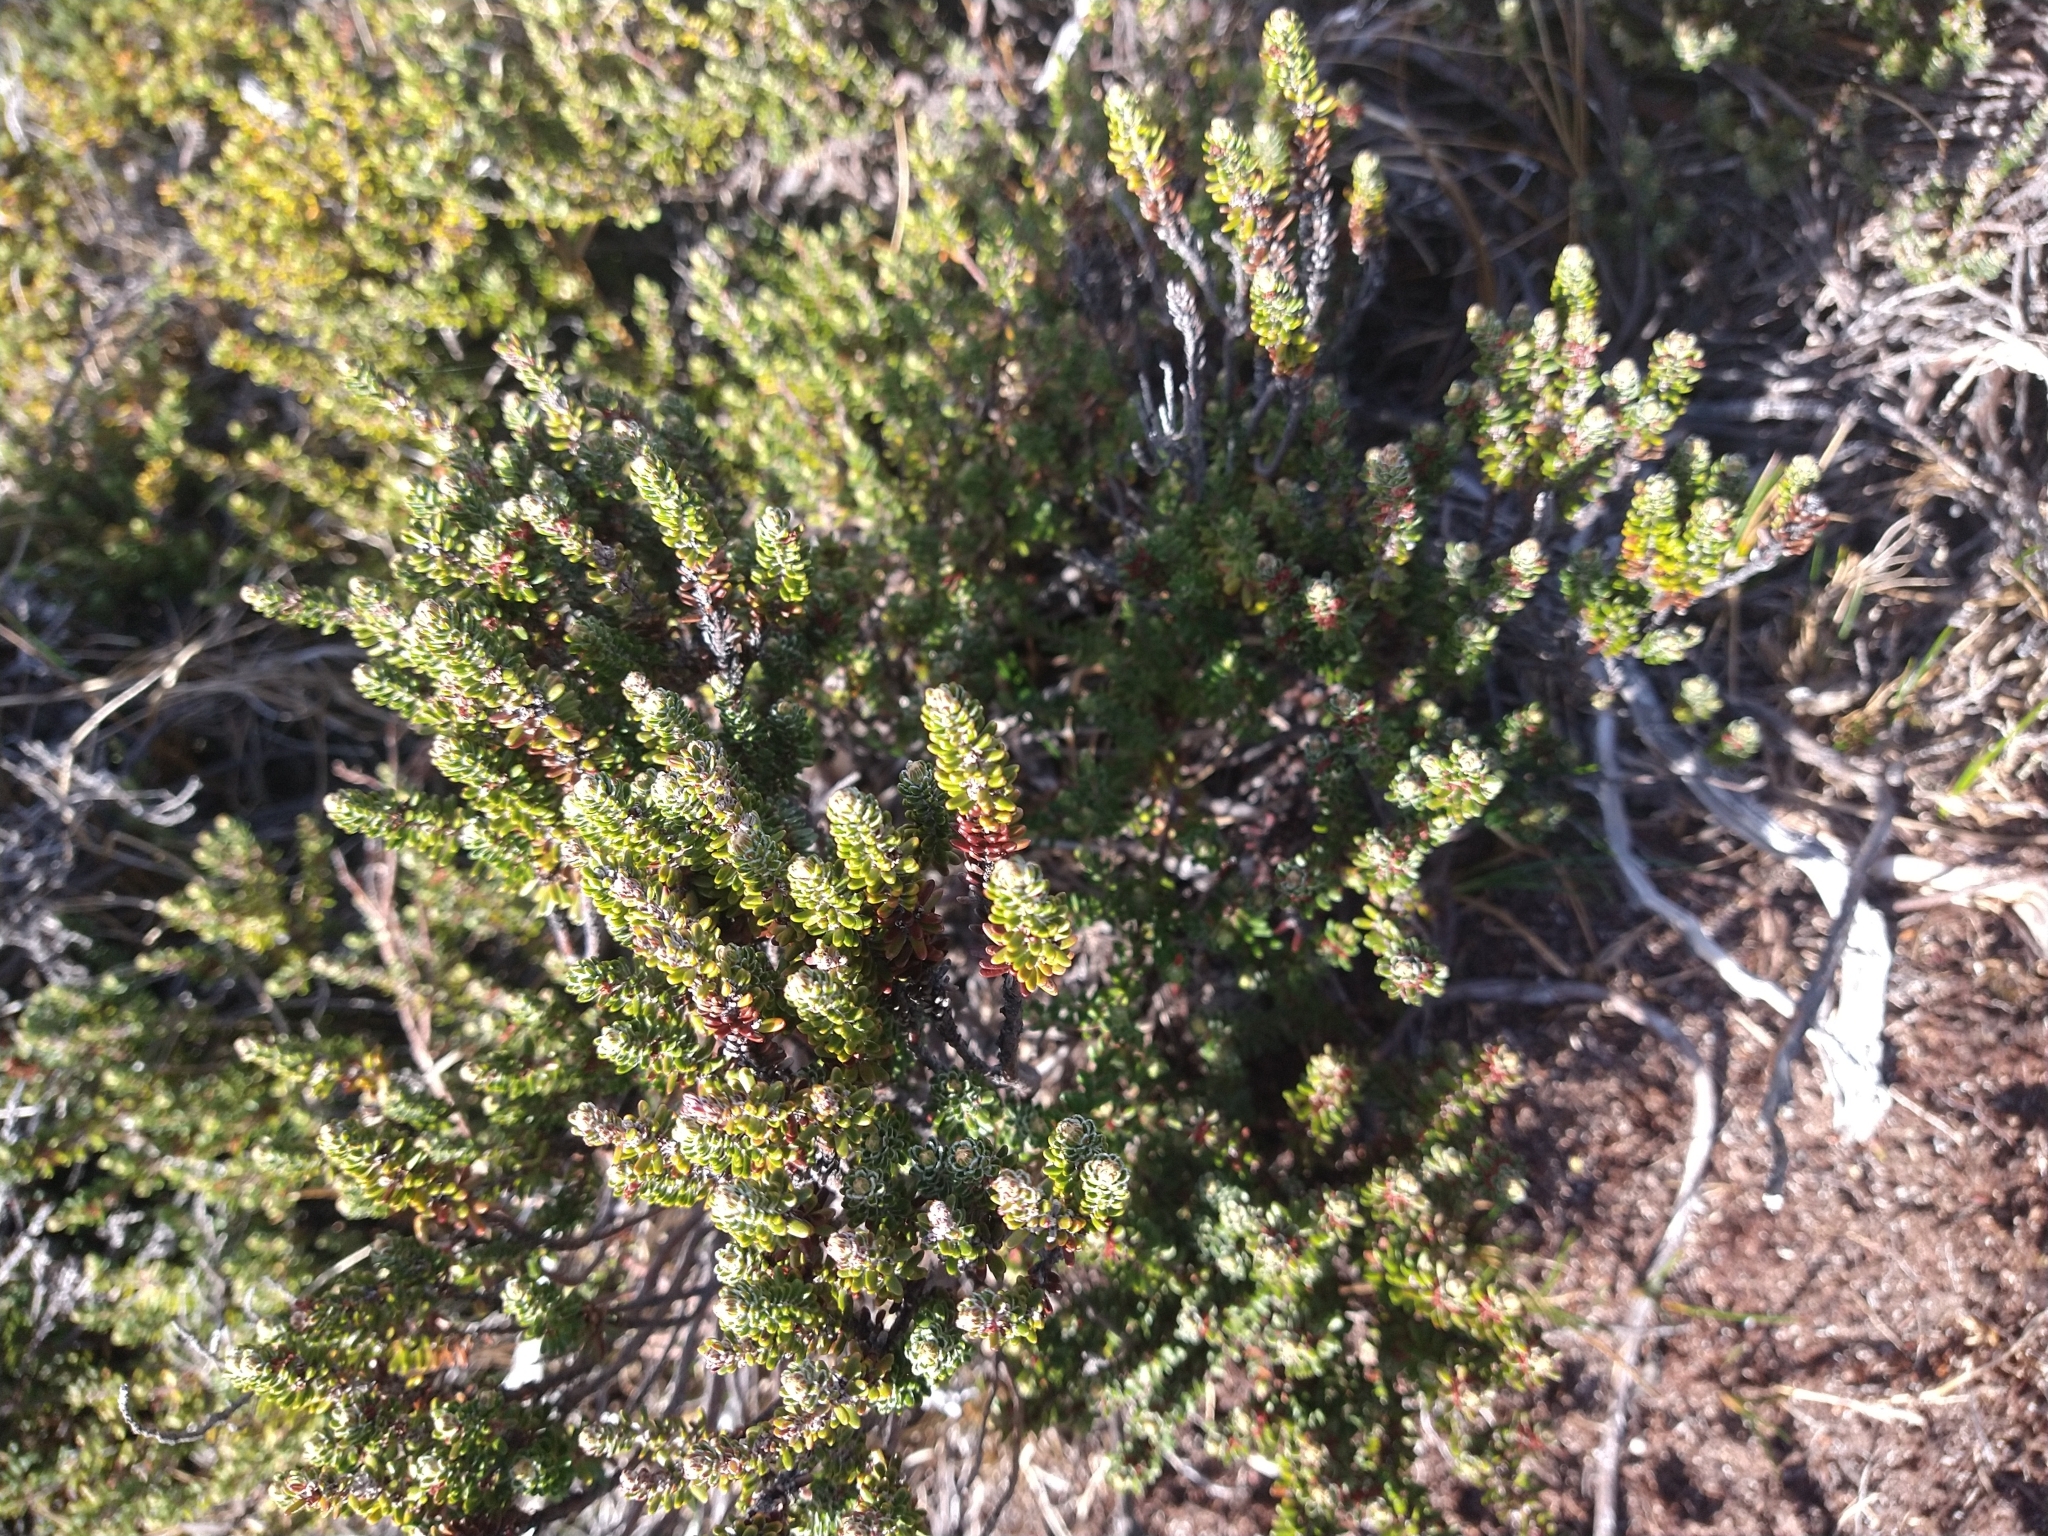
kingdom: Plantae
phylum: Tracheophyta
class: Magnoliopsida
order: Ericales
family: Ericaceae
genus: Empetrum
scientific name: Empetrum rubrum
